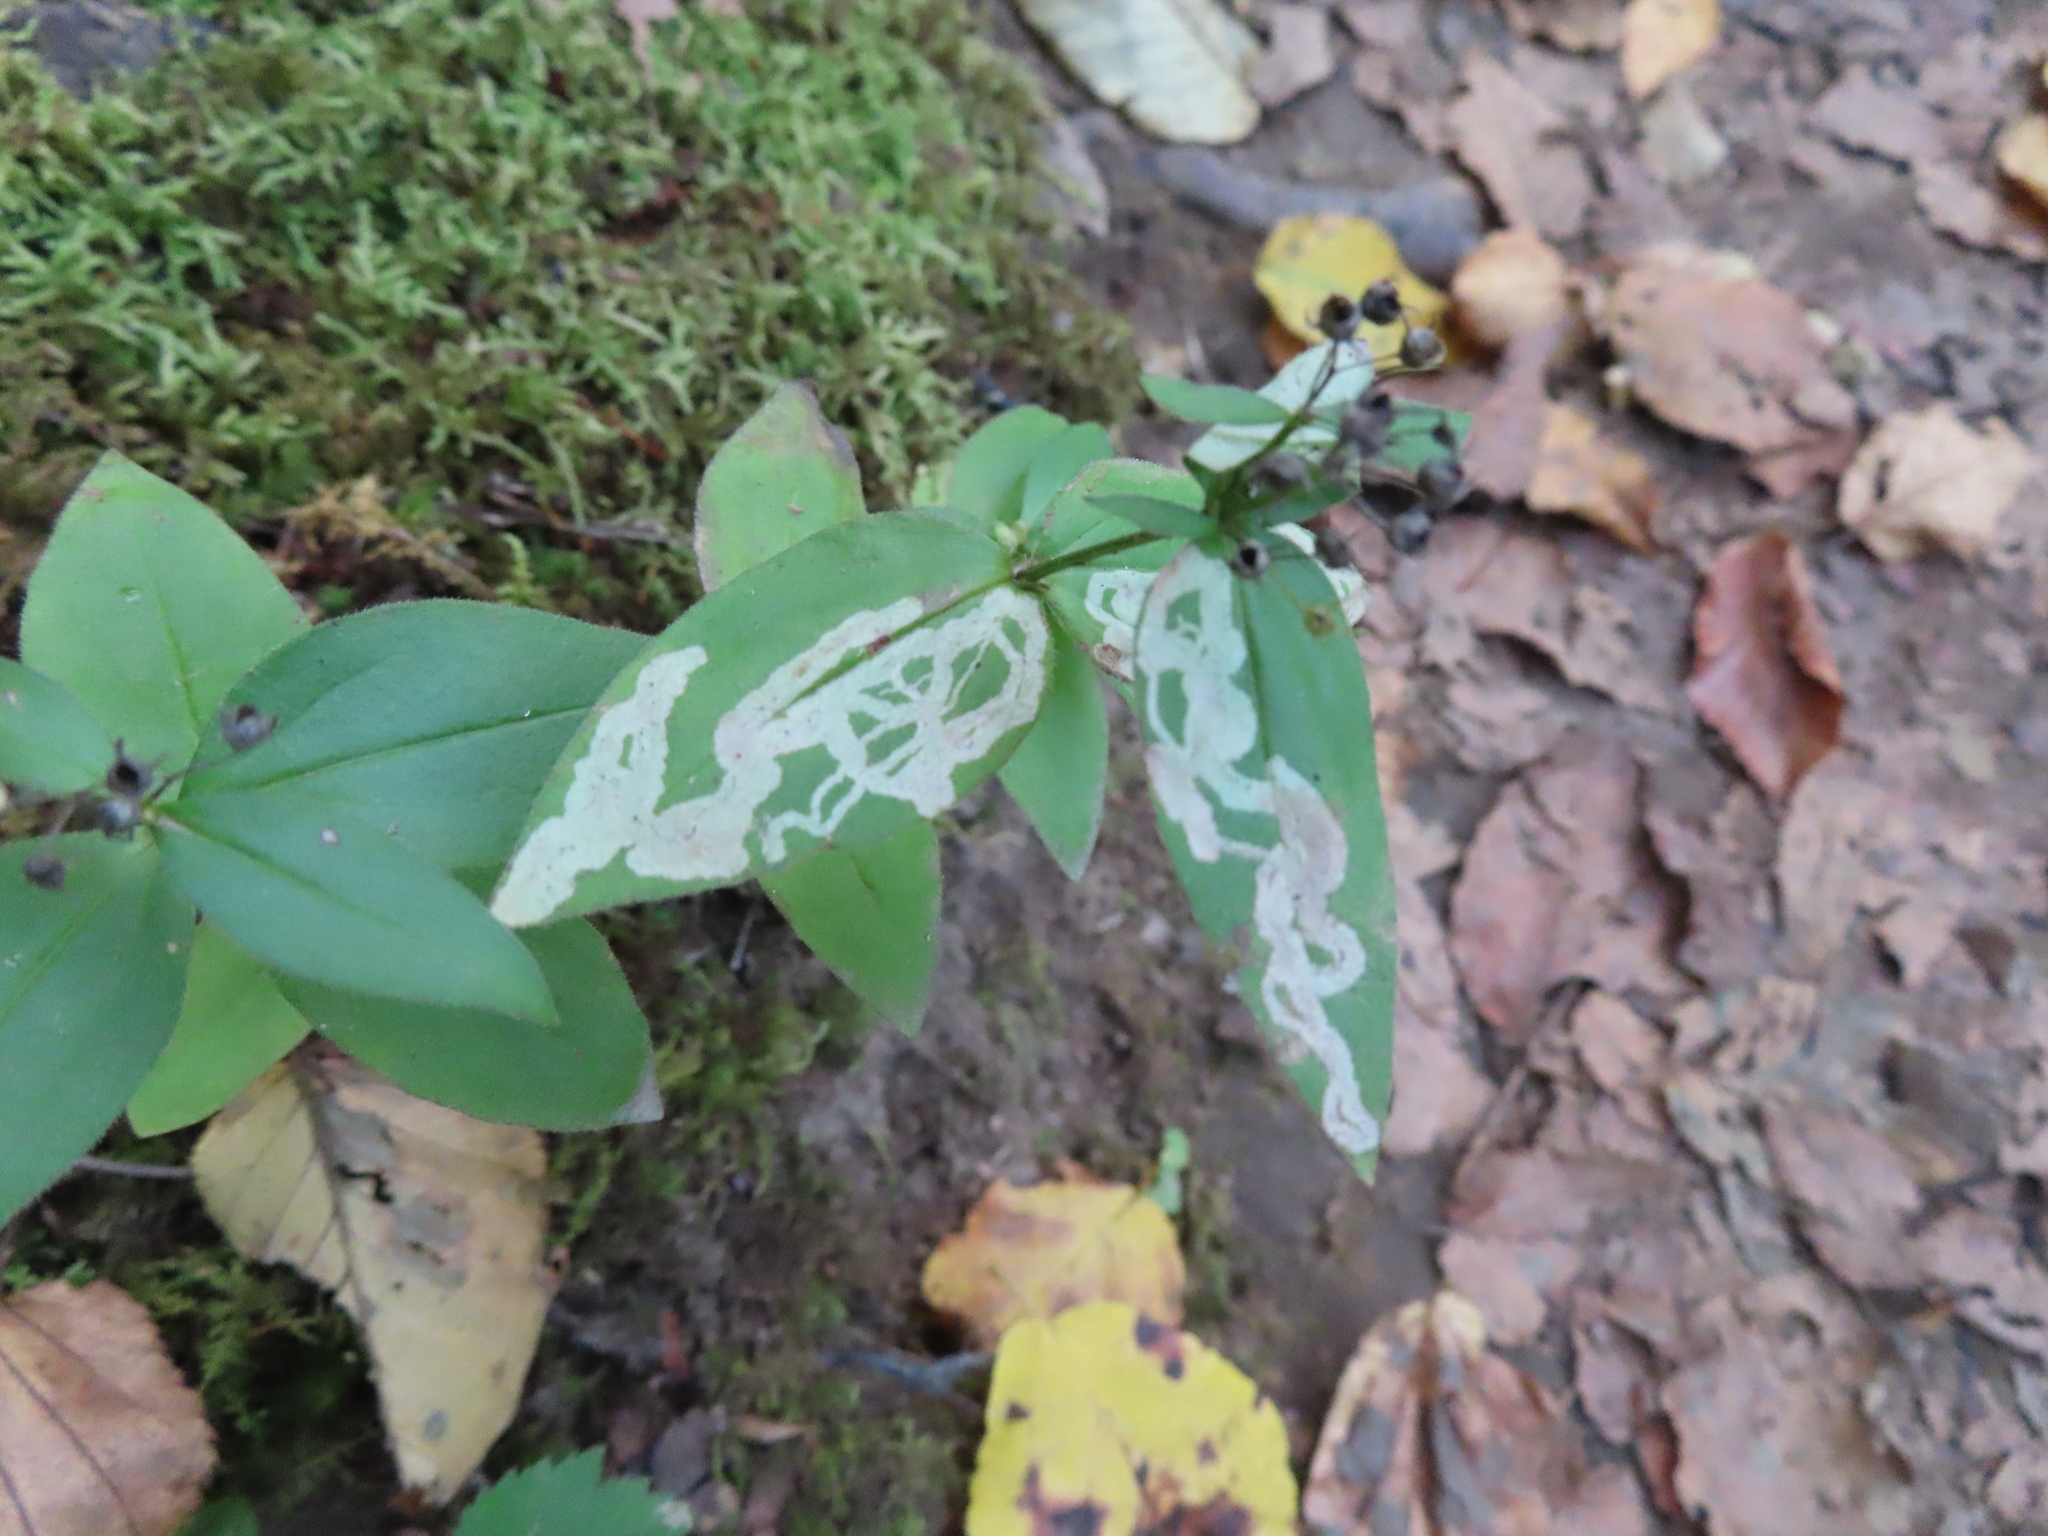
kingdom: Animalia
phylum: Arthropoda
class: Insecta
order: Diptera
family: Agromyzidae
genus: Liriomyza
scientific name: Liriomyza galiivora
